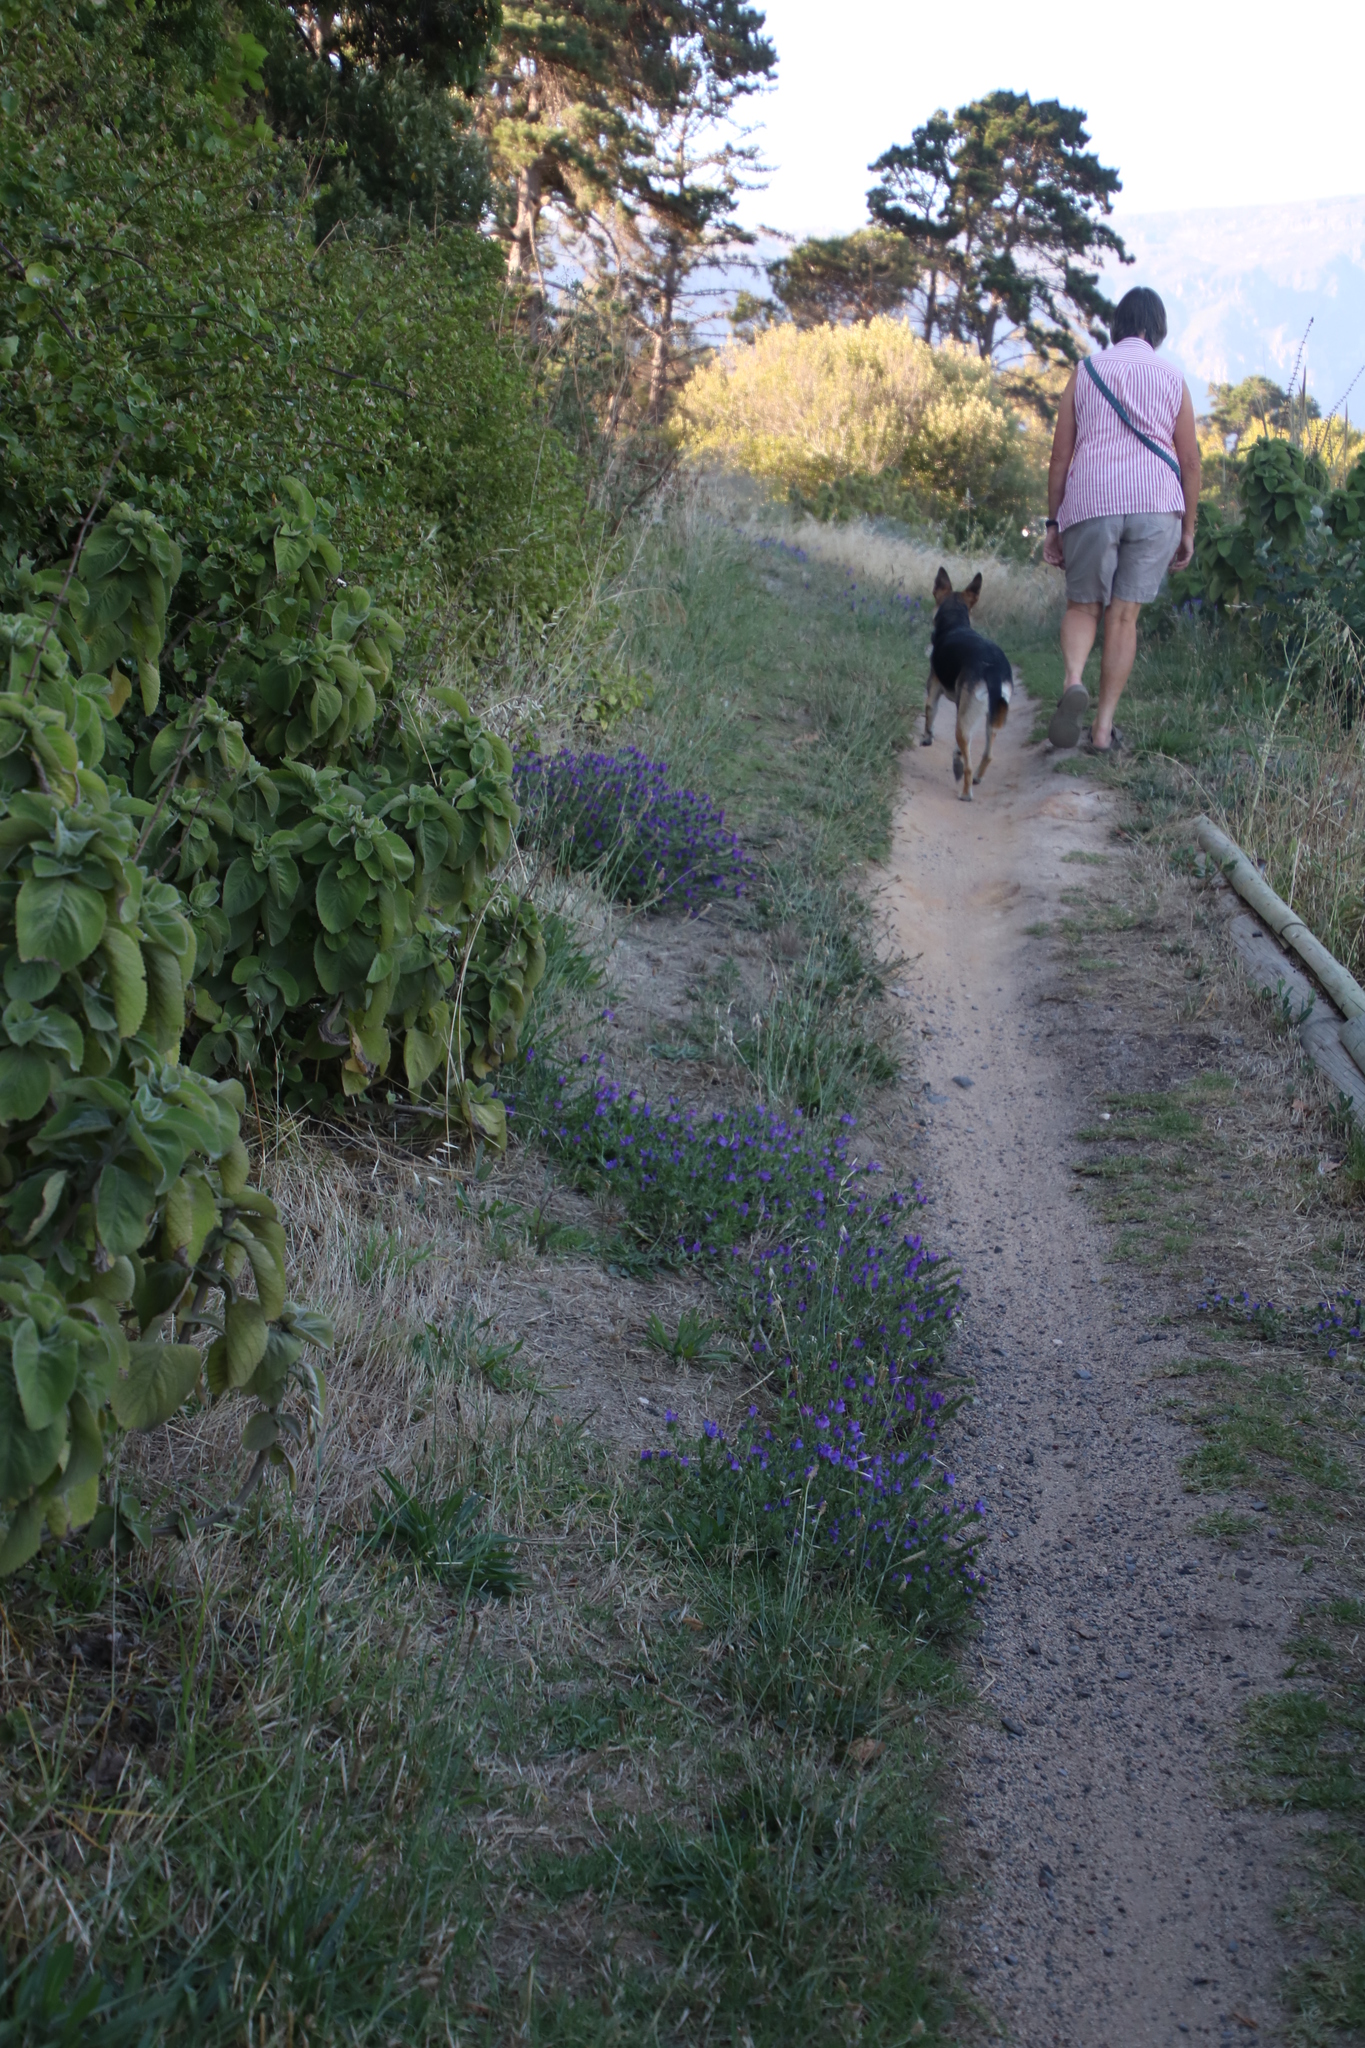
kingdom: Plantae
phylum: Tracheophyta
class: Magnoliopsida
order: Boraginales
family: Boraginaceae
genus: Echium
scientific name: Echium plantagineum
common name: Purple viper's-bugloss
